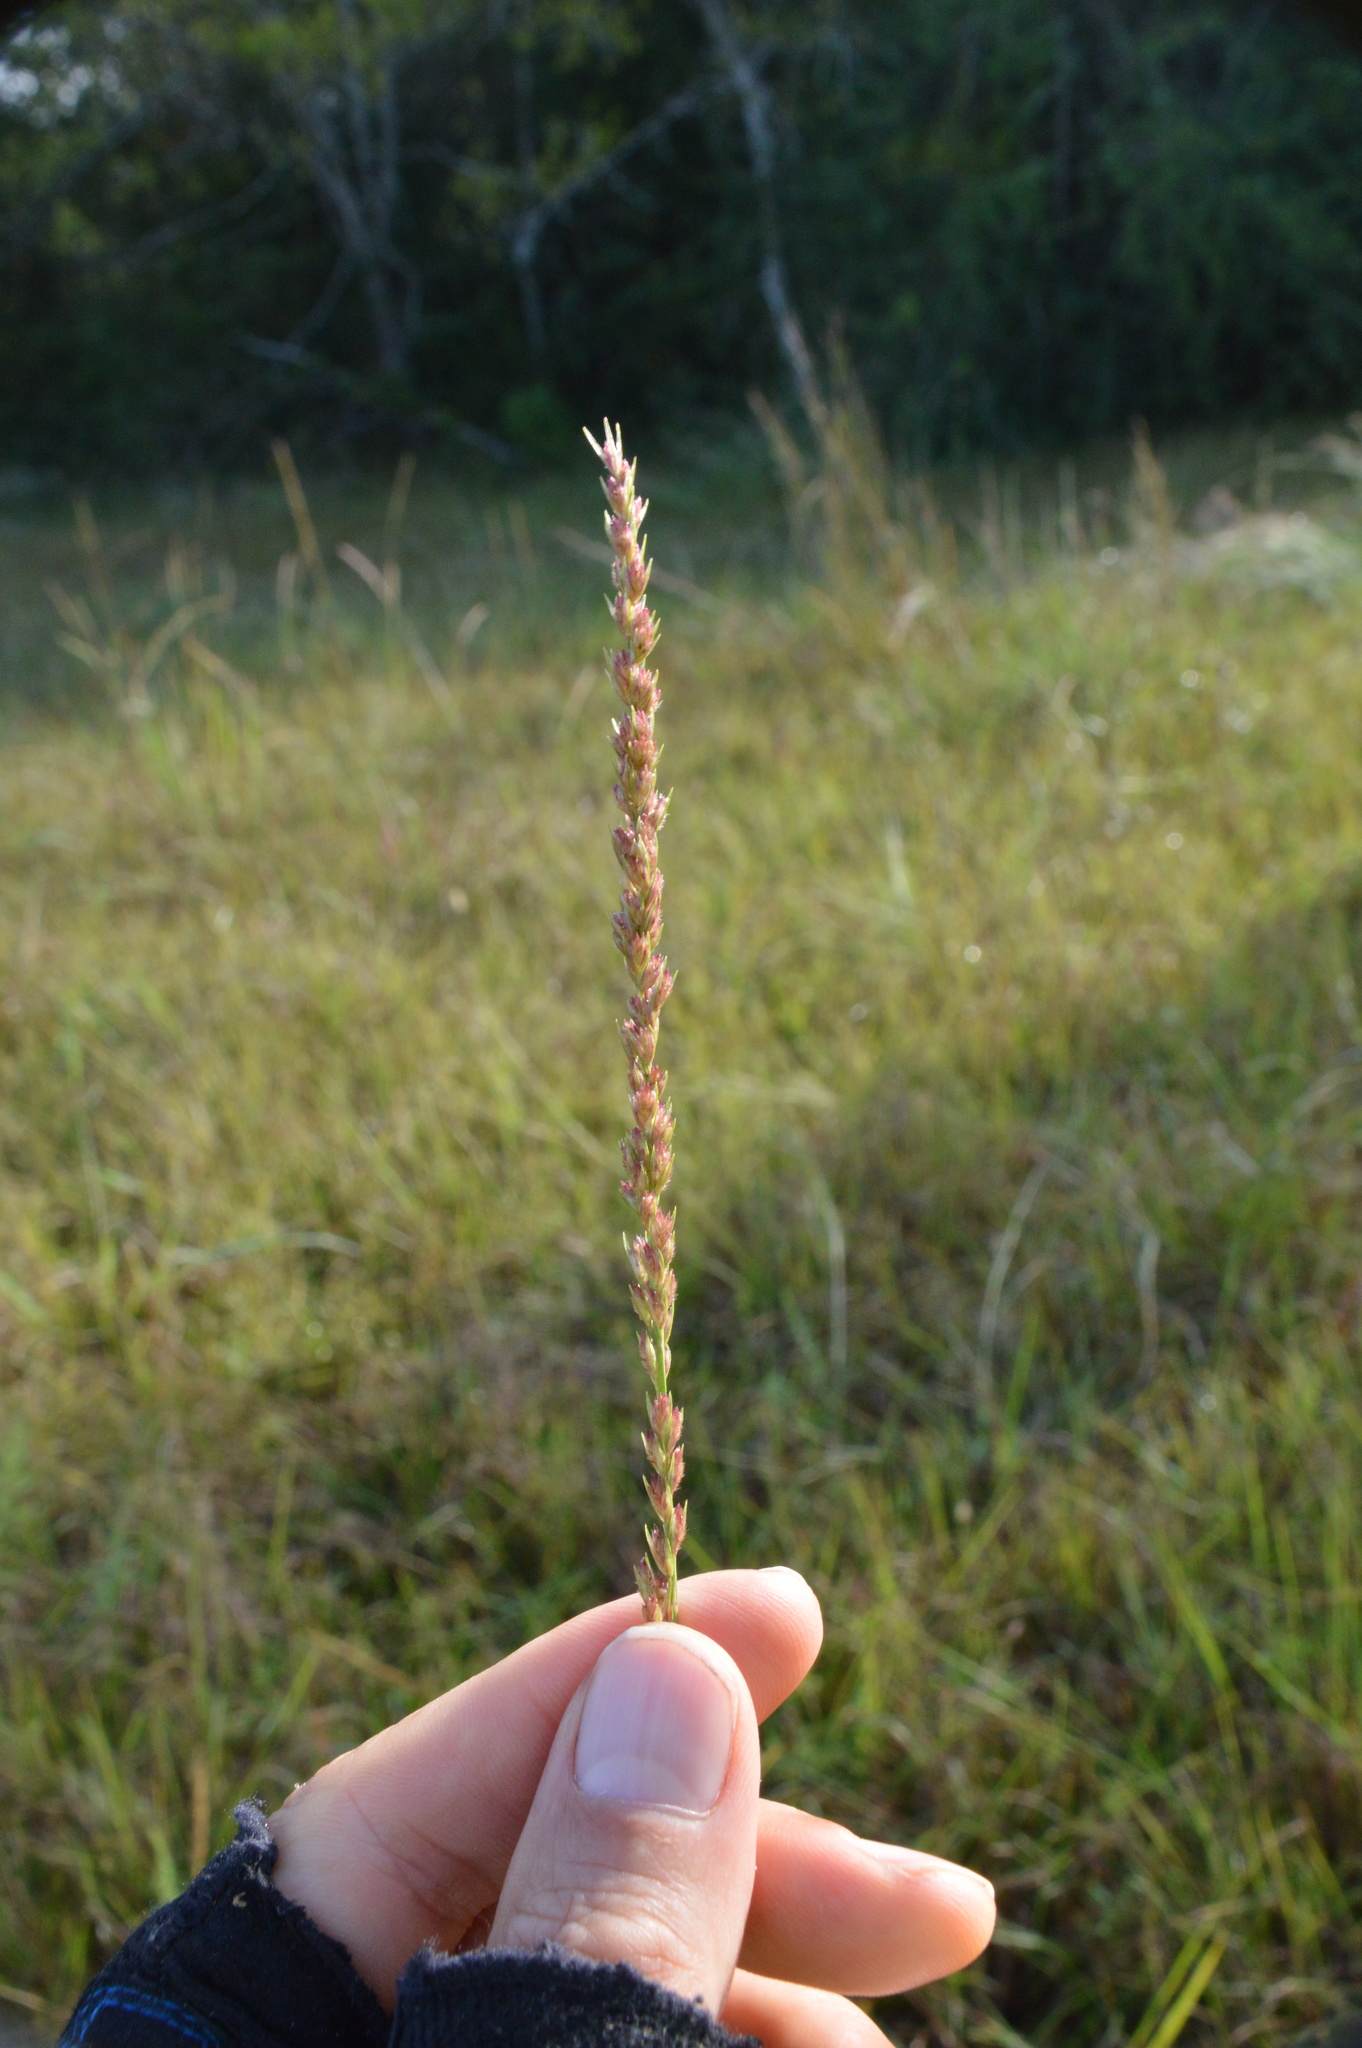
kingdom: Plantae
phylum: Tracheophyta
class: Liliopsida
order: Poales
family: Poaceae
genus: Tridens
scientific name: Tridens strictus
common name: Long-spike tridens
